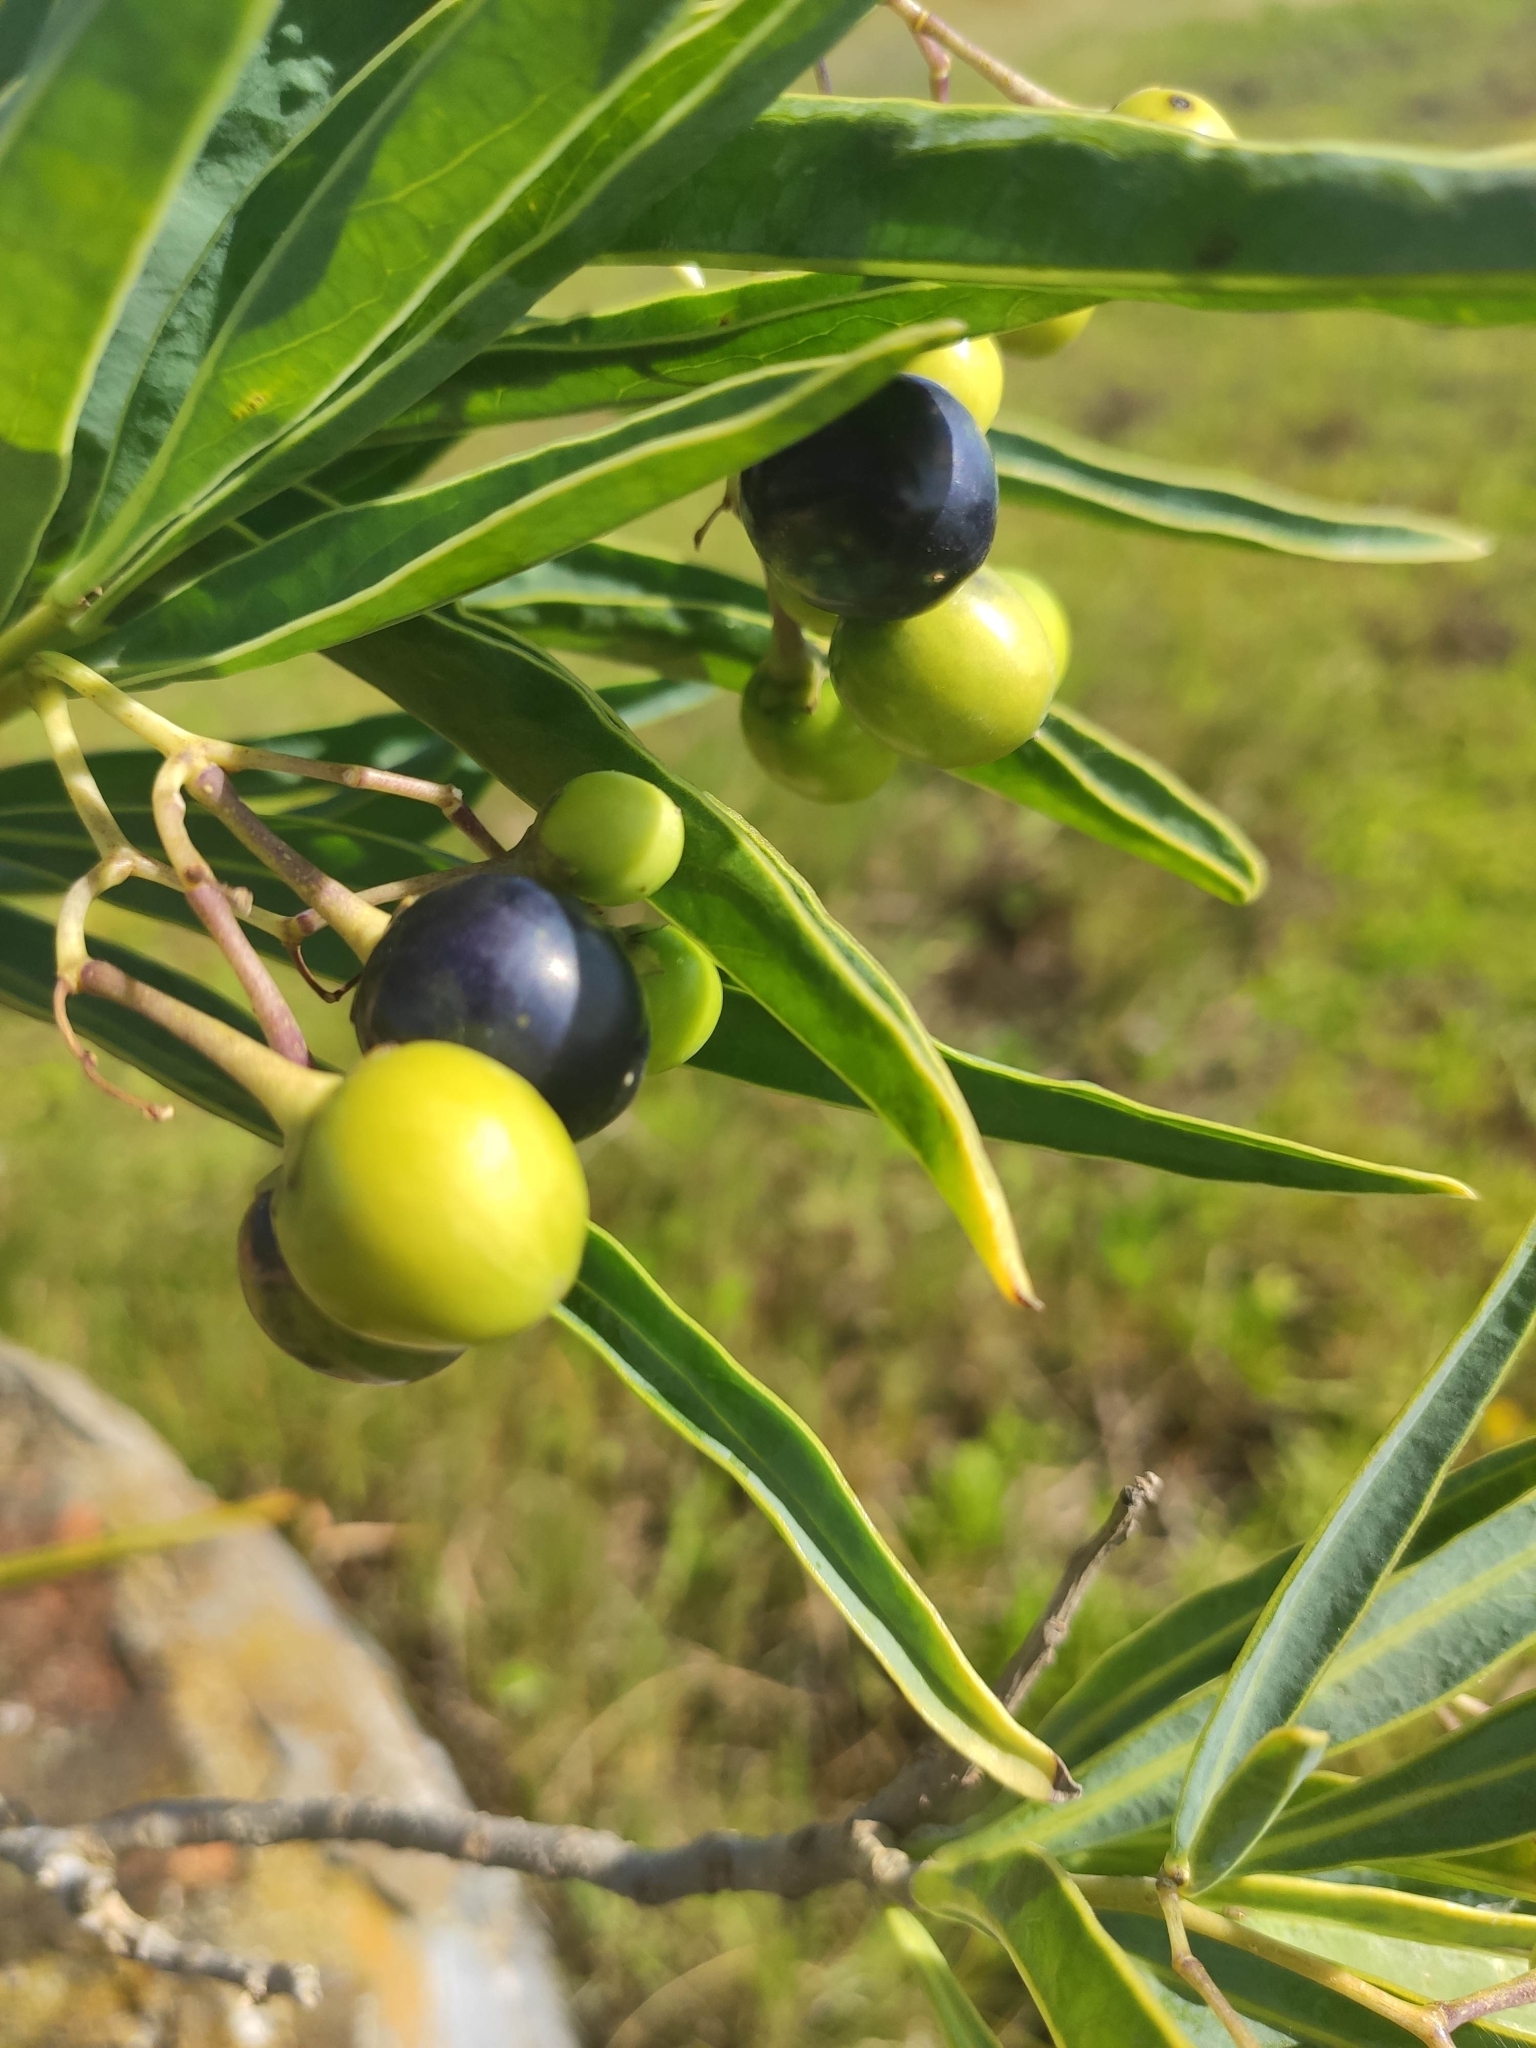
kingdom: Plantae
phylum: Tracheophyta
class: Magnoliopsida
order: Solanales
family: Solanaceae
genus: Solanum
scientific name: Solanum glaucophyllum
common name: Waxyleaf nightshade
